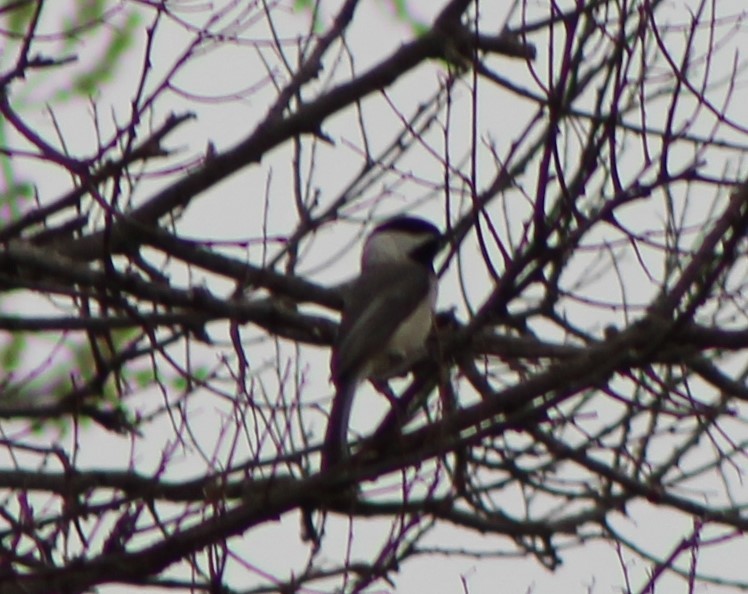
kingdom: Animalia
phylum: Chordata
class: Aves
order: Passeriformes
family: Paridae
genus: Poecile
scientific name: Poecile carolinensis
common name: Carolina chickadee
